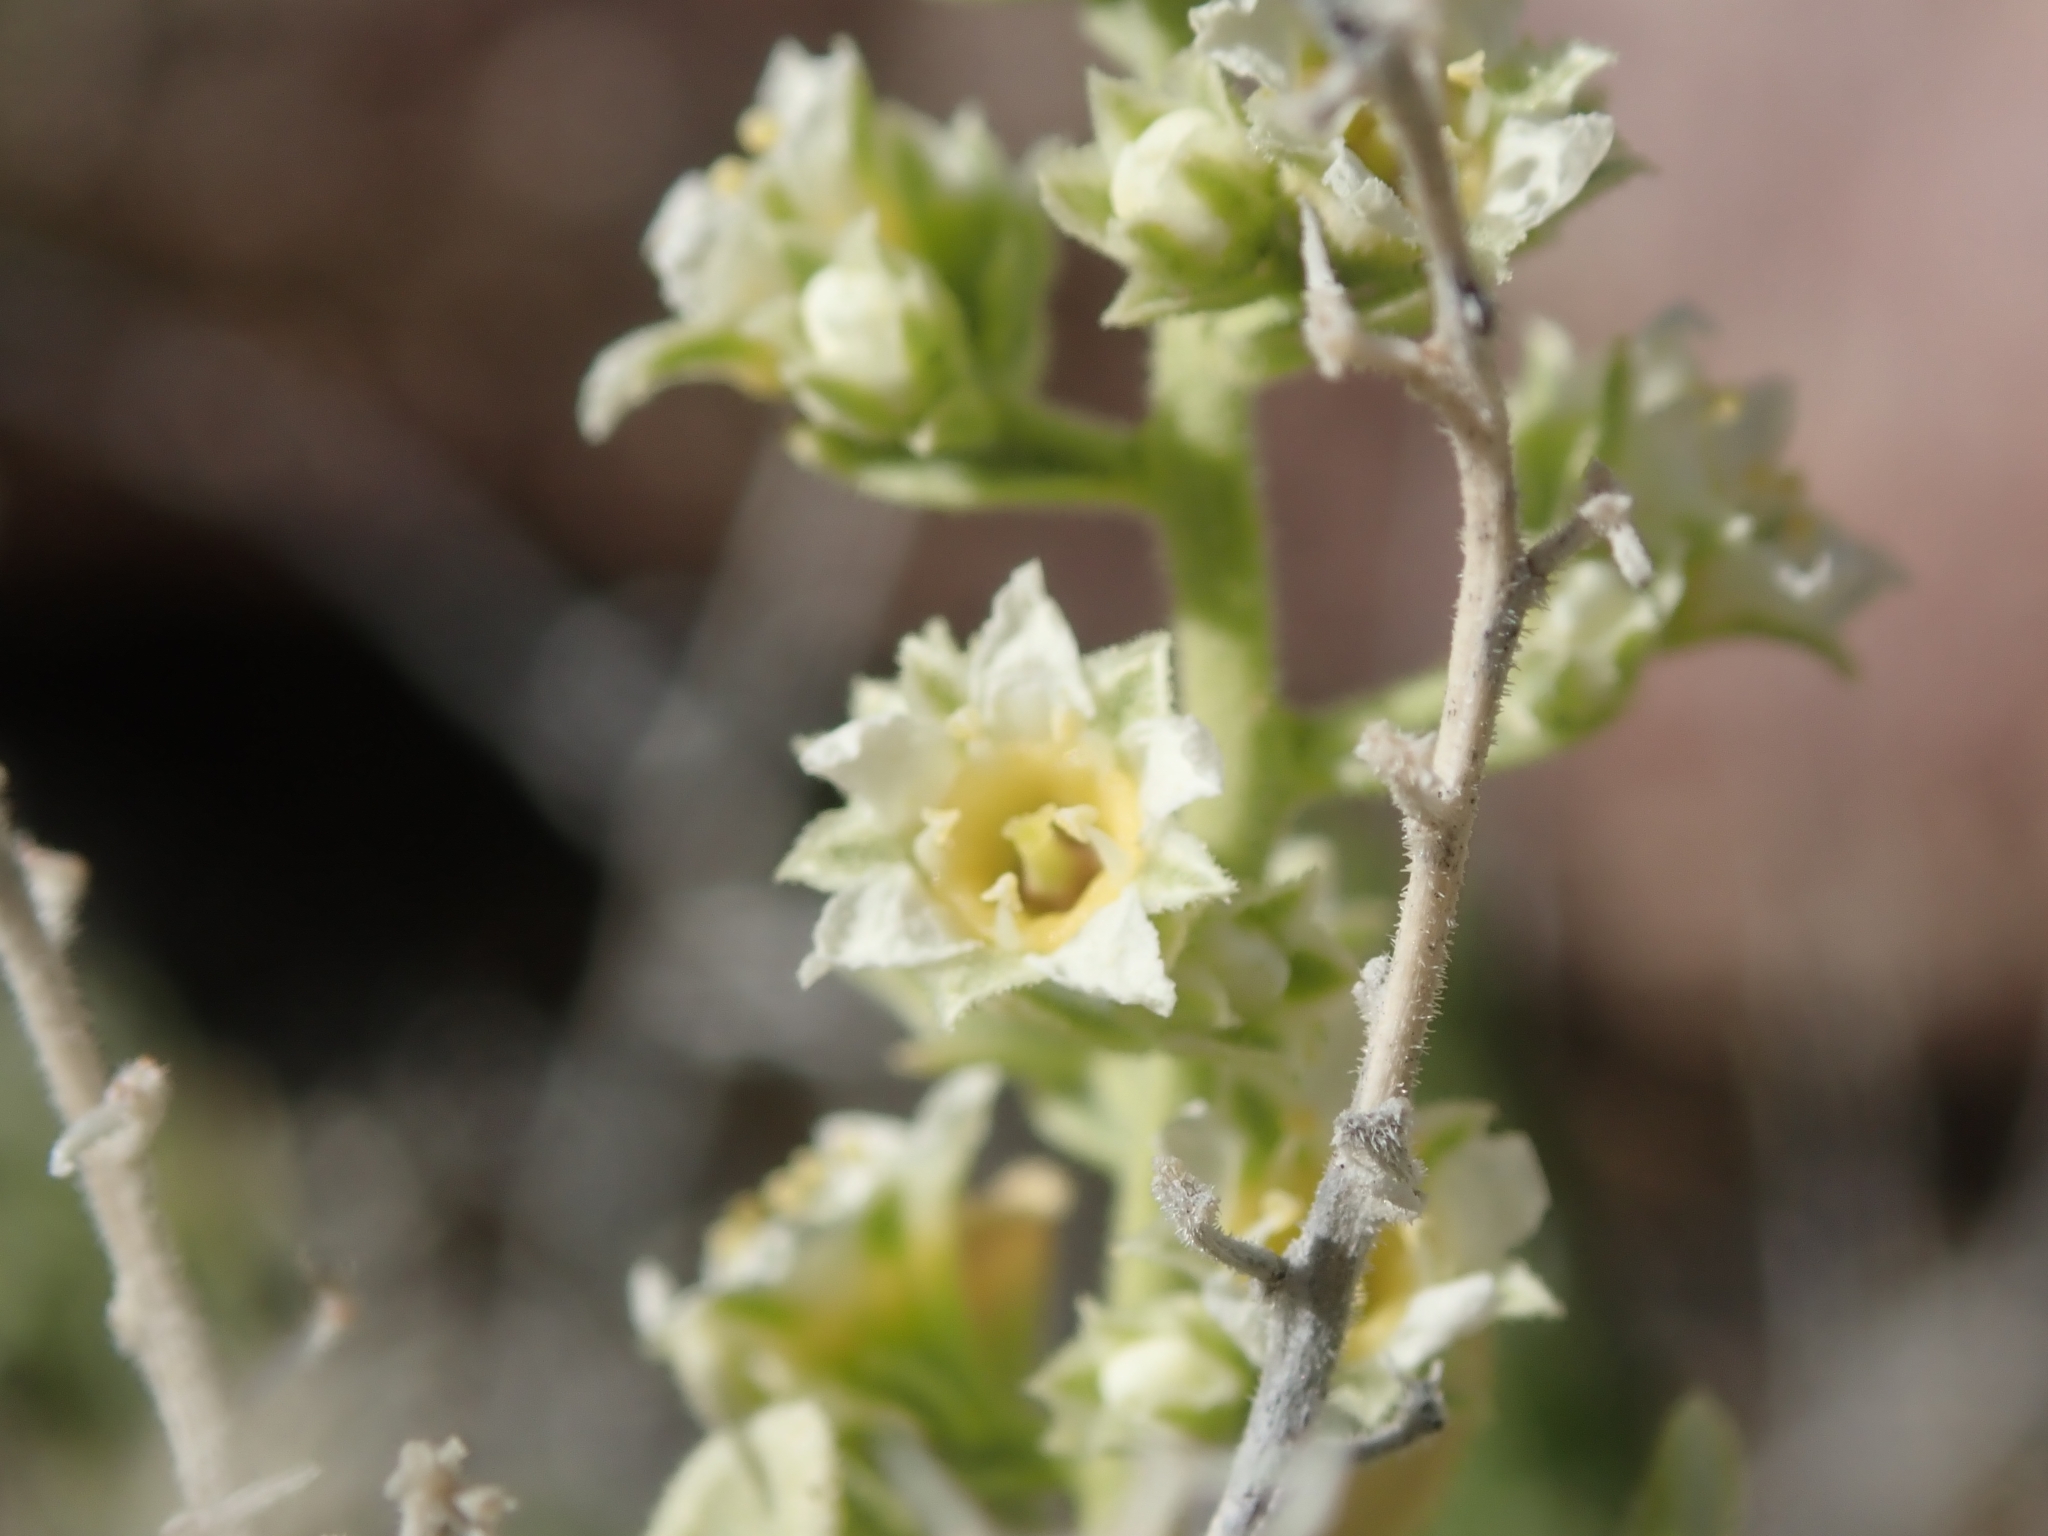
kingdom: Plantae
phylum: Tracheophyta
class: Magnoliopsida
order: Celastrales
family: Celastraceae
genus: Mortonia
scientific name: Mortonia utahensis
